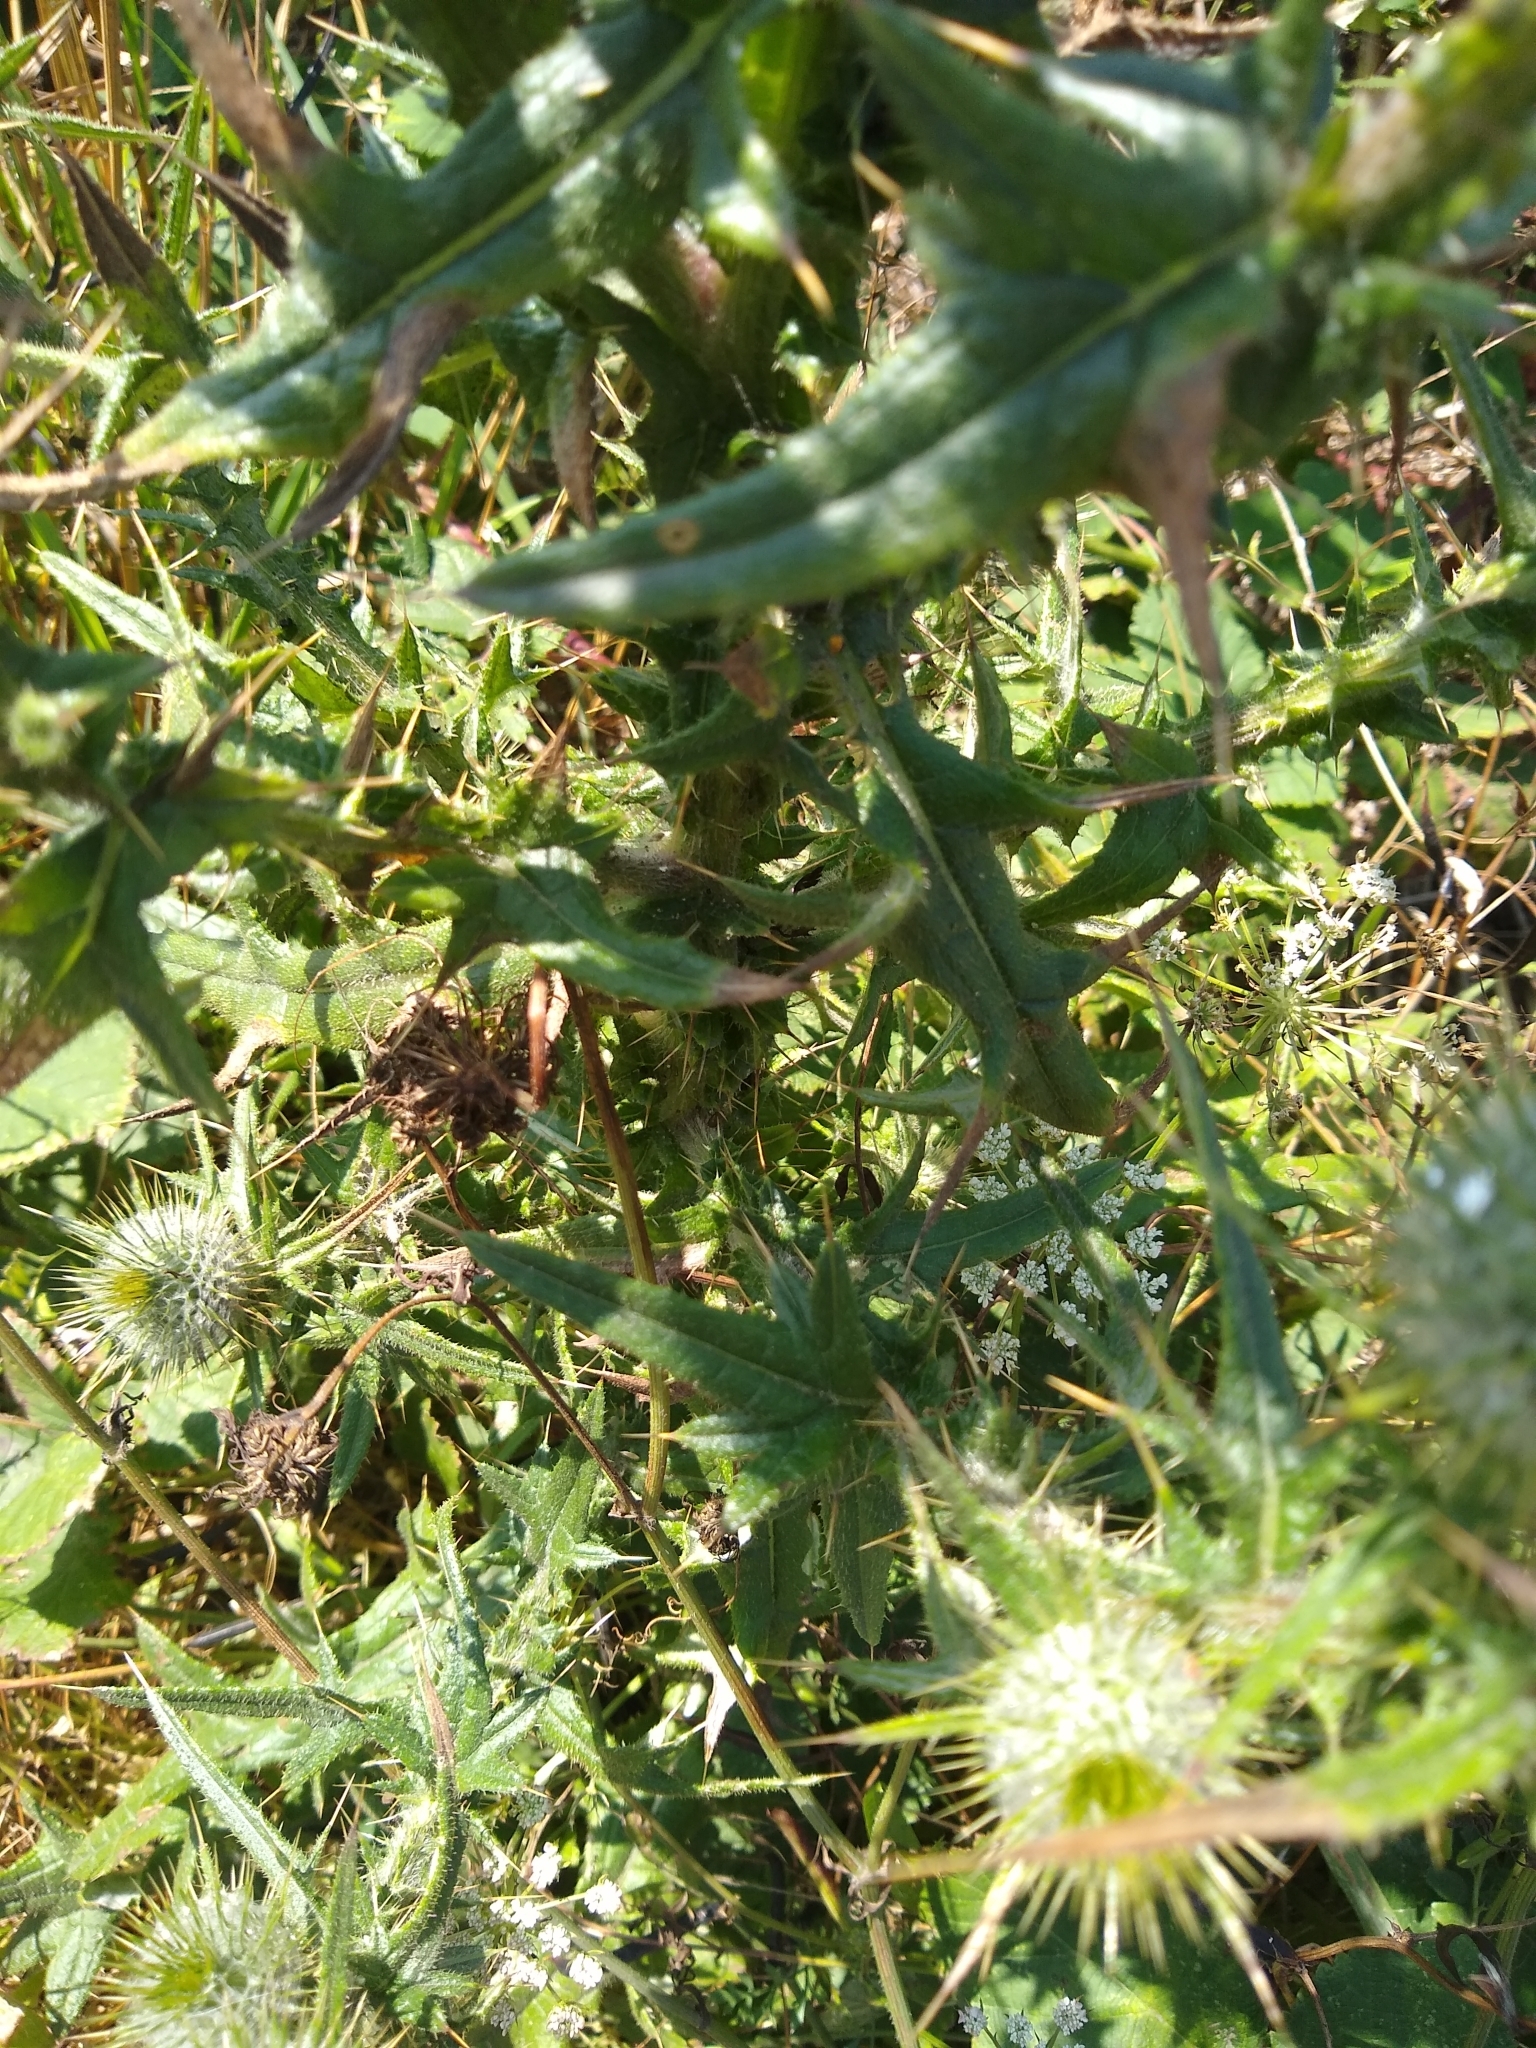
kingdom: Plantae
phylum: Tracheophyta
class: Magnoliopsida
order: Asterales
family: Asteraceae
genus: Cirsium
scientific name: Cirsium vulgare
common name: Bull thistle
